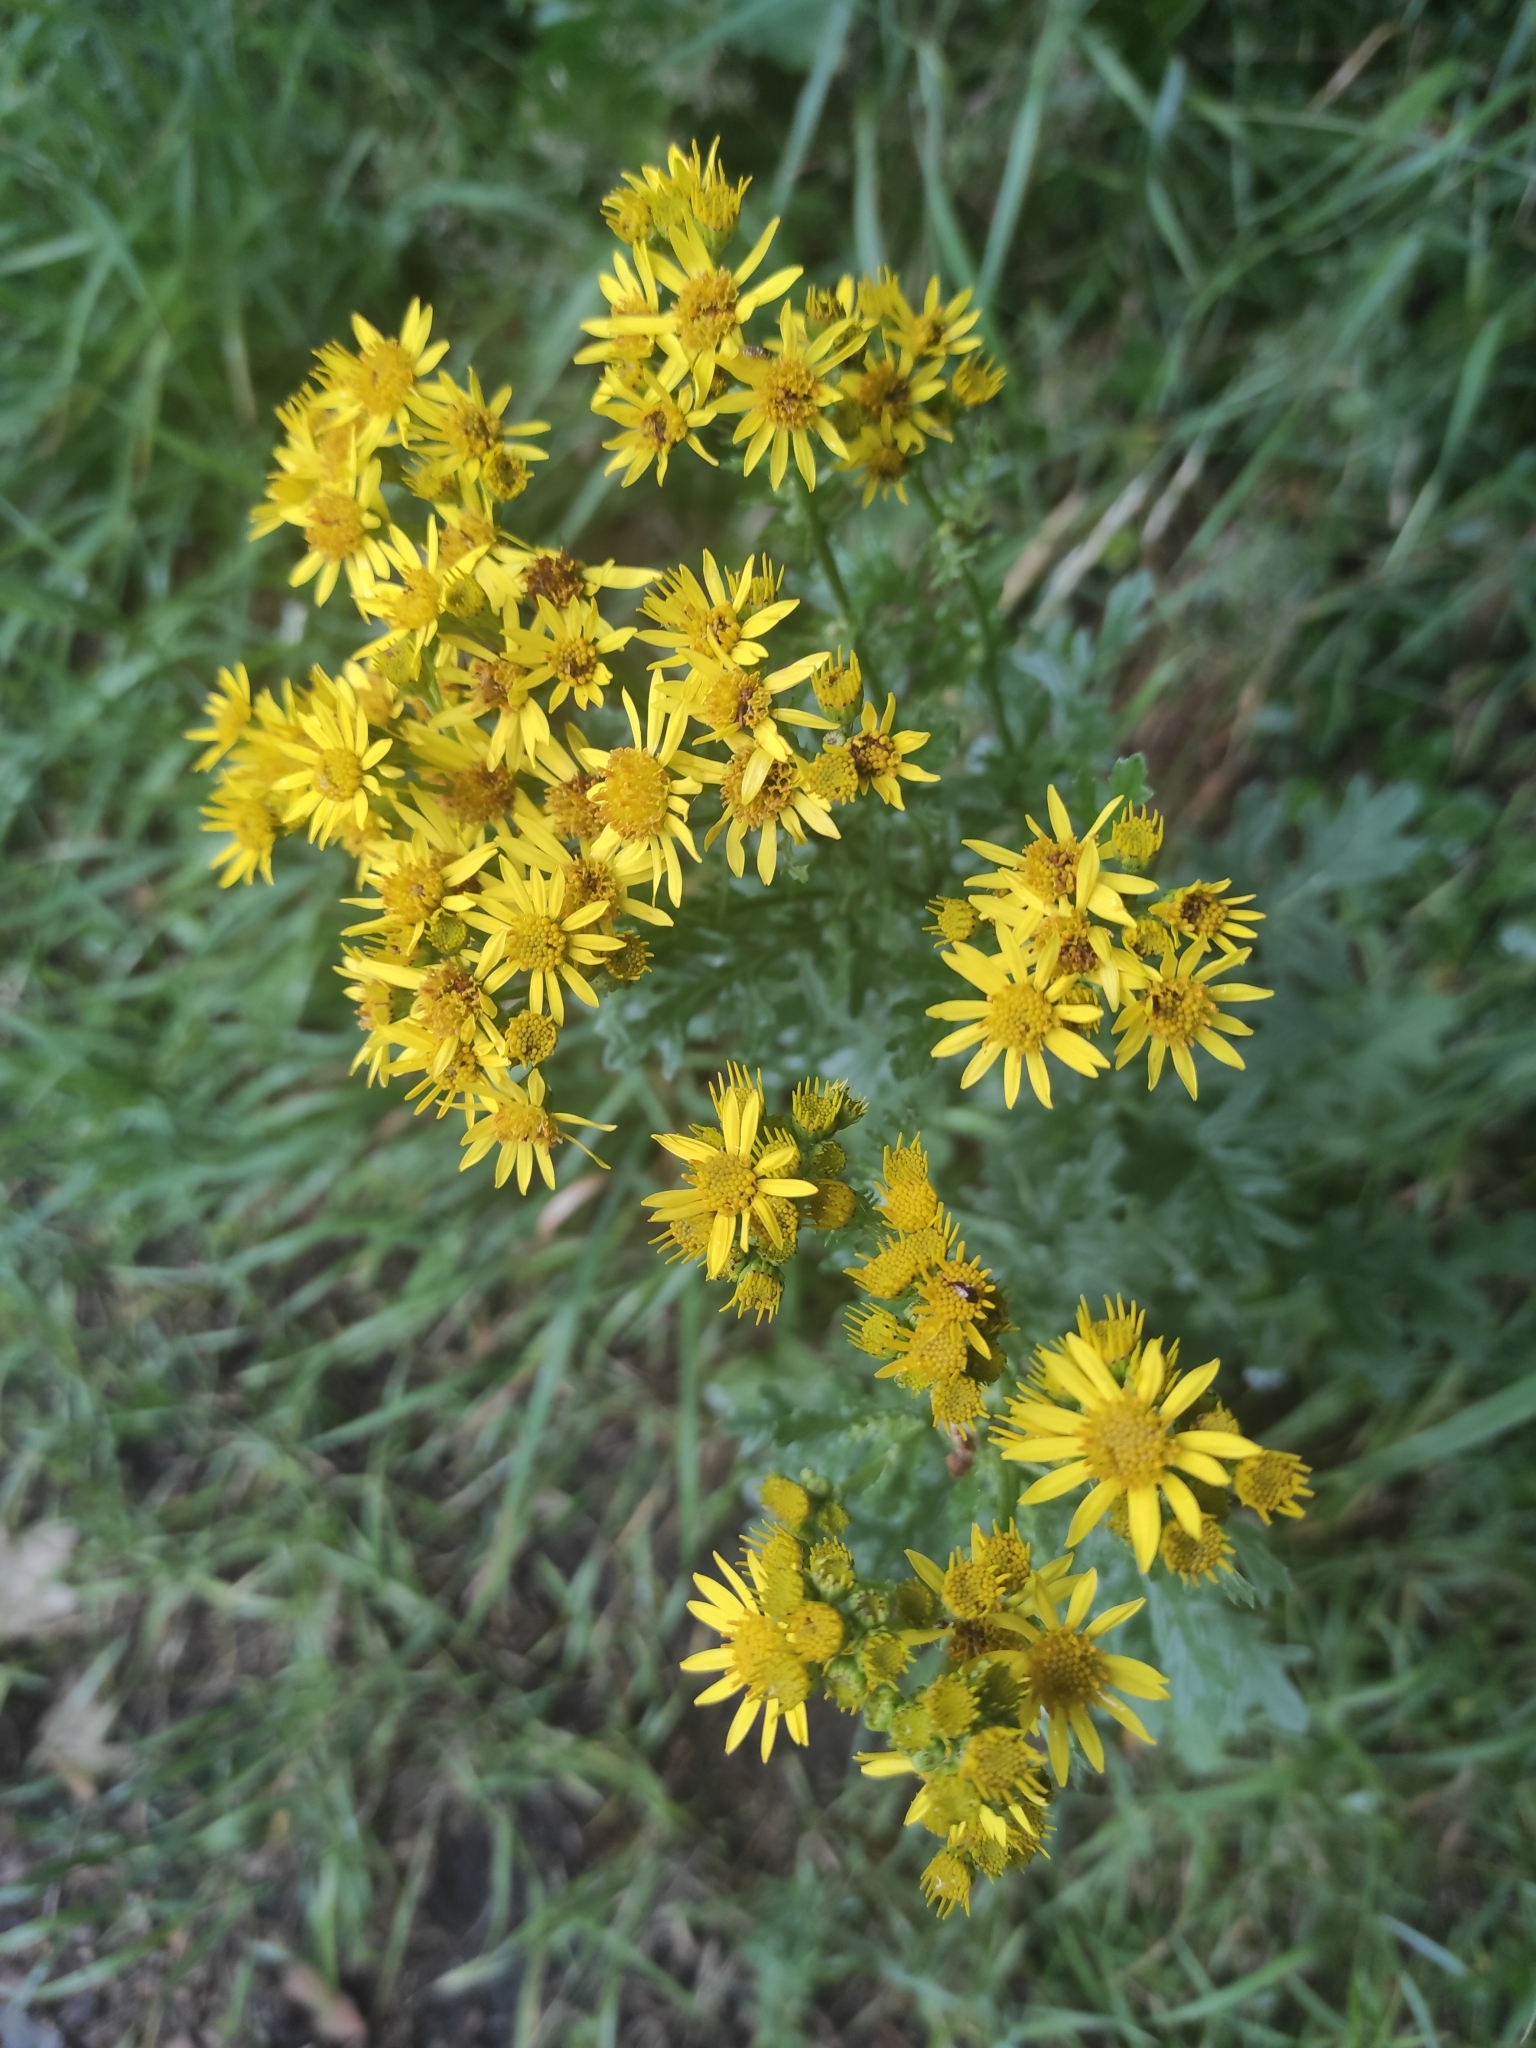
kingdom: Plantae
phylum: Tracheophyta
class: Magnoliopsida
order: Asterales
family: Asteraceae
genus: Jacobaea
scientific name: Jacobaea vulgaris
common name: Stinking willie
